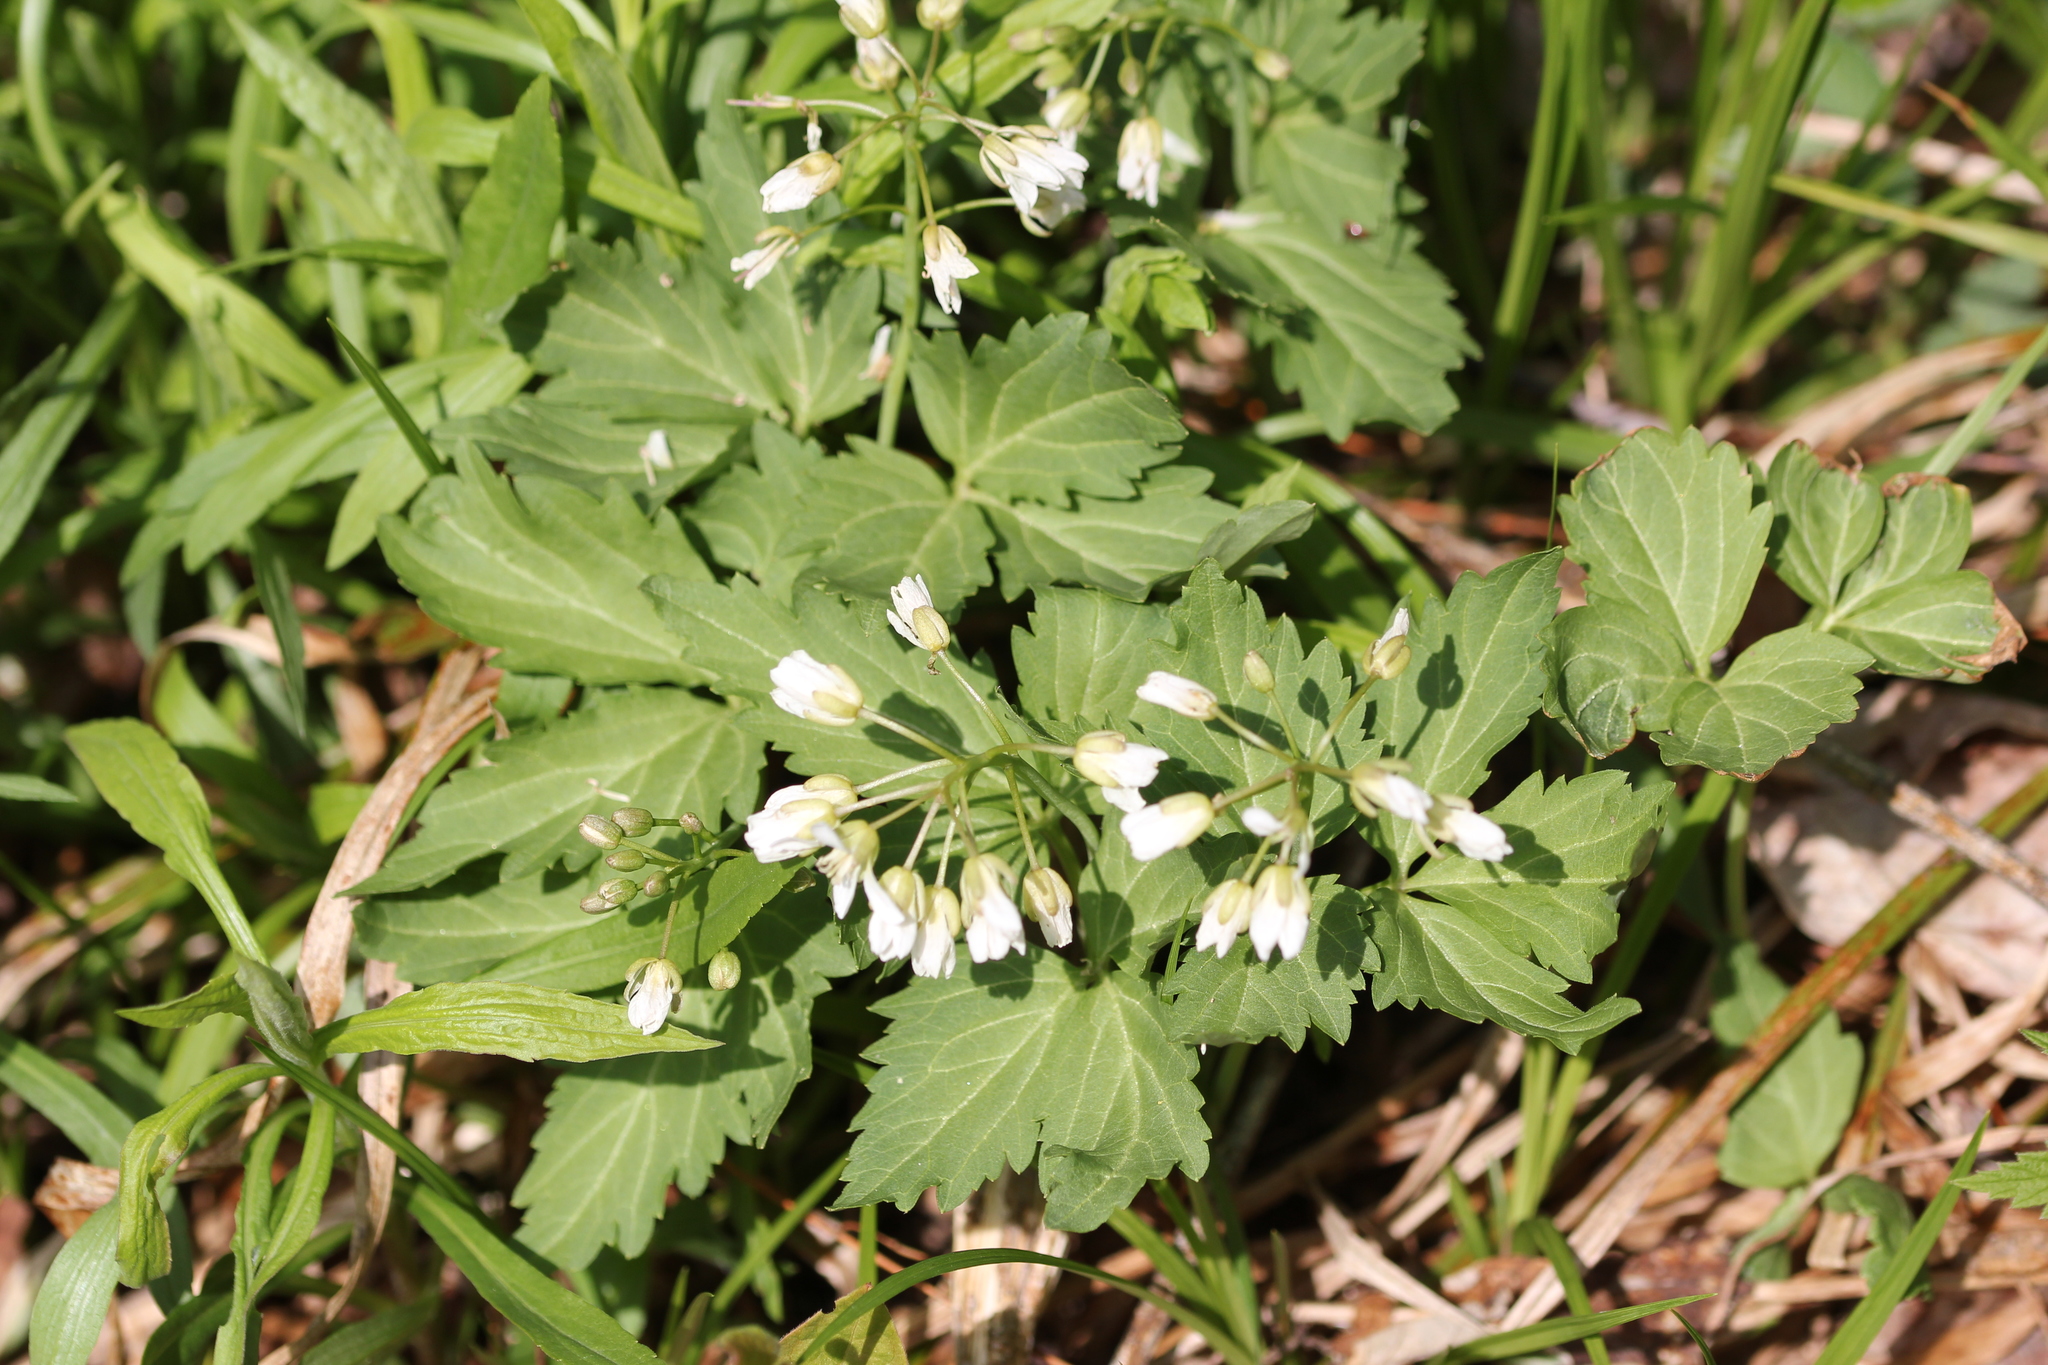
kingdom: Plantae
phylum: Tracheophyta
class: Magnoliopsida
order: Brassicales
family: Brassicaceae
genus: Cardamine
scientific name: Cardamine diphylla
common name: Broad-leaved toothwort
